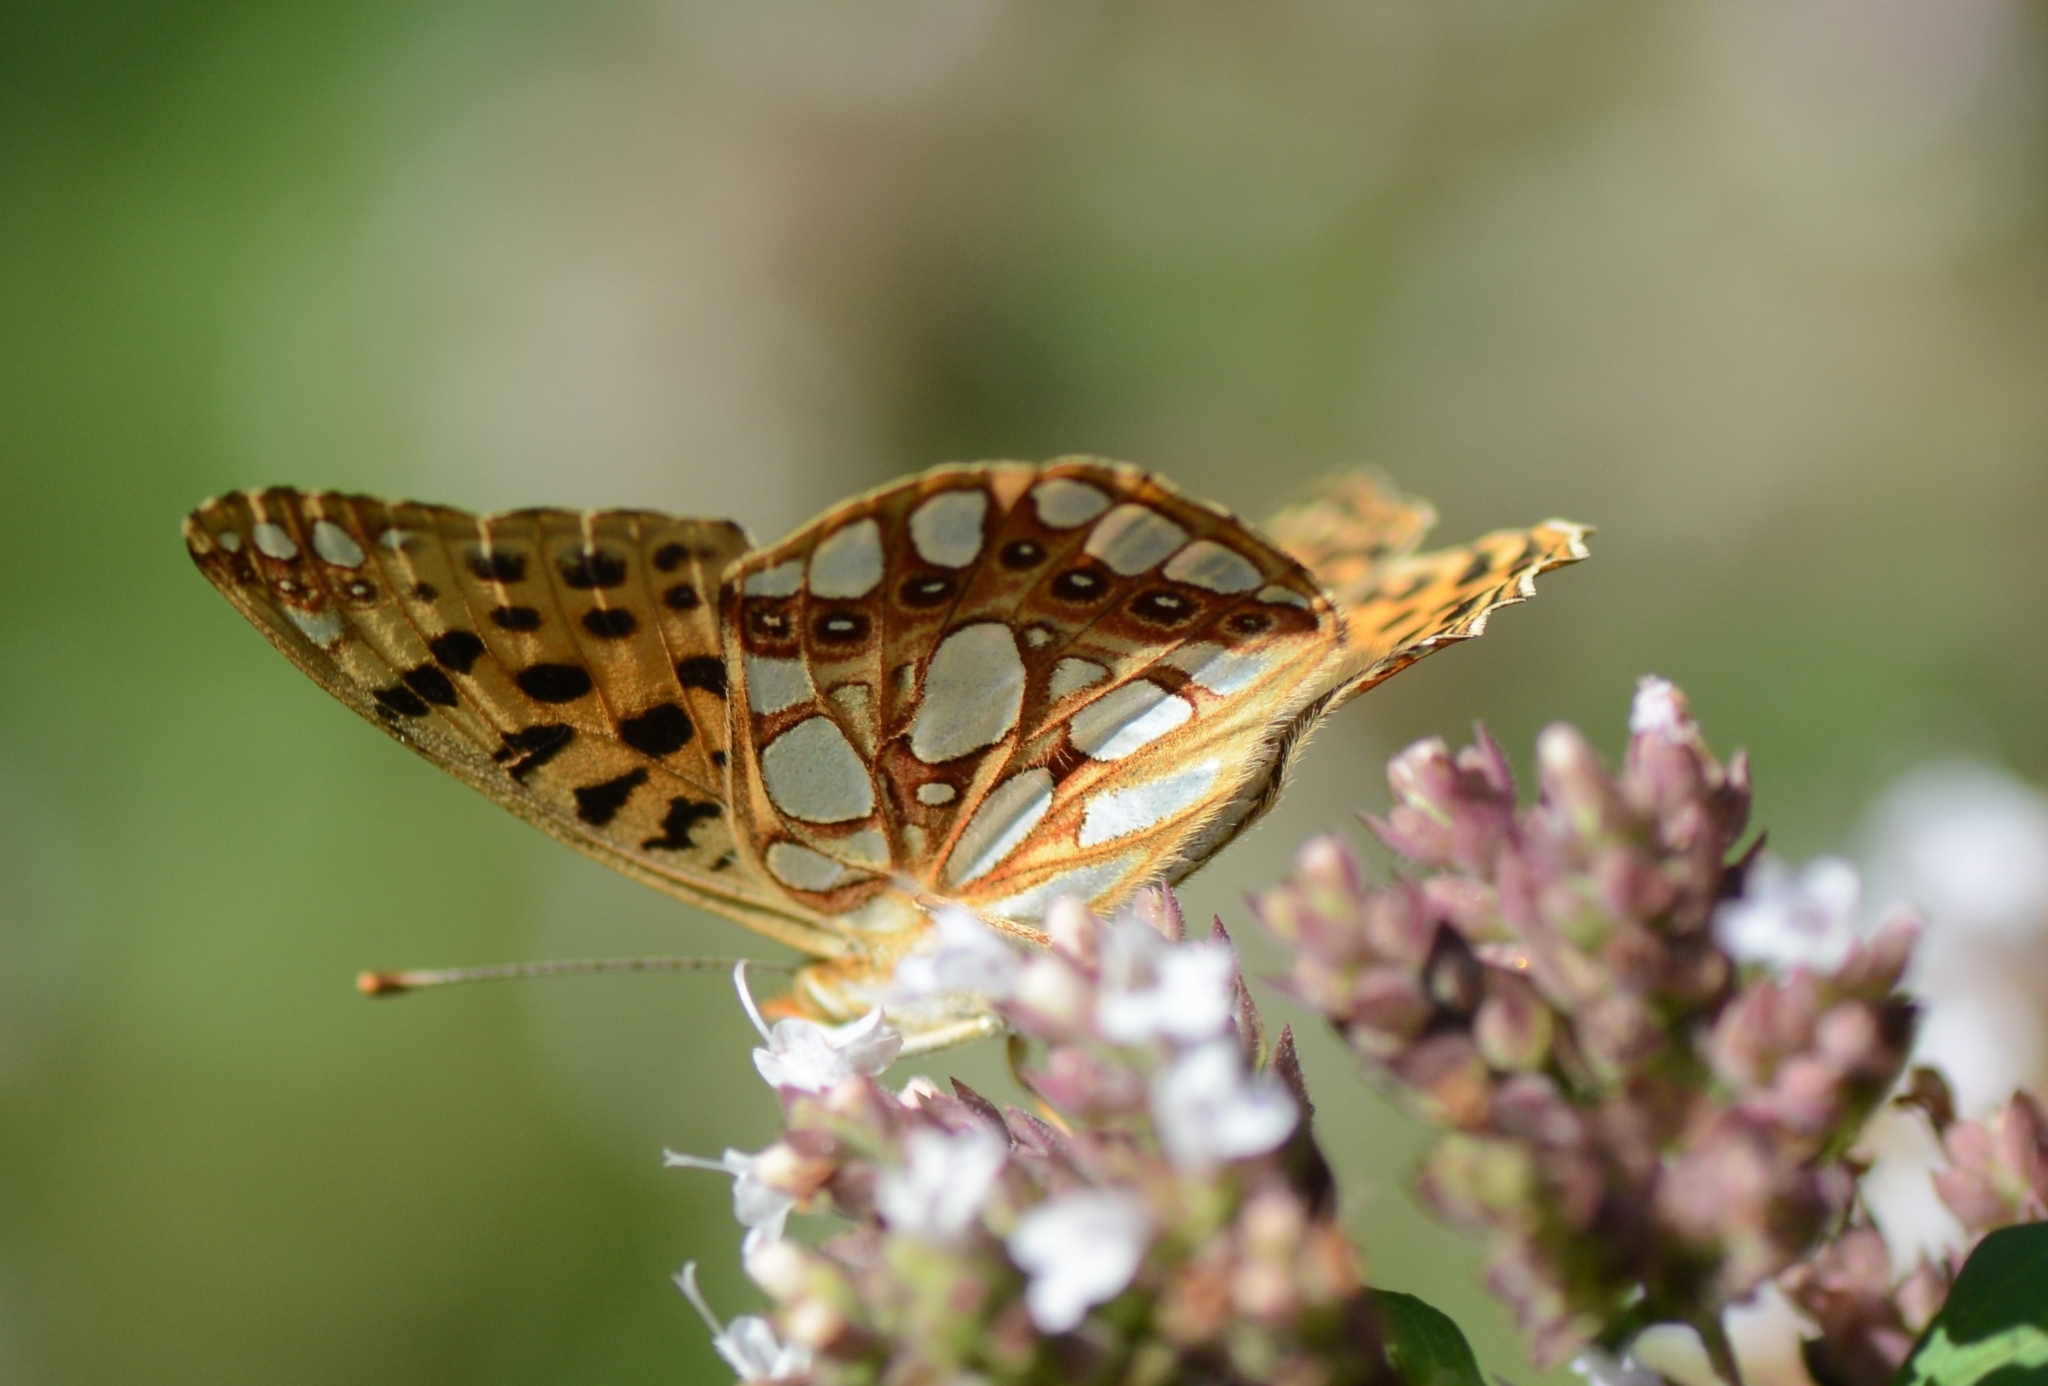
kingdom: Animalia
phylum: Arthropoda
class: Insecta
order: Lepidoptera
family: Nymphalidae
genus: Issoria
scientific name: Issoria lathonia
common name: Queen of spain fritillary
